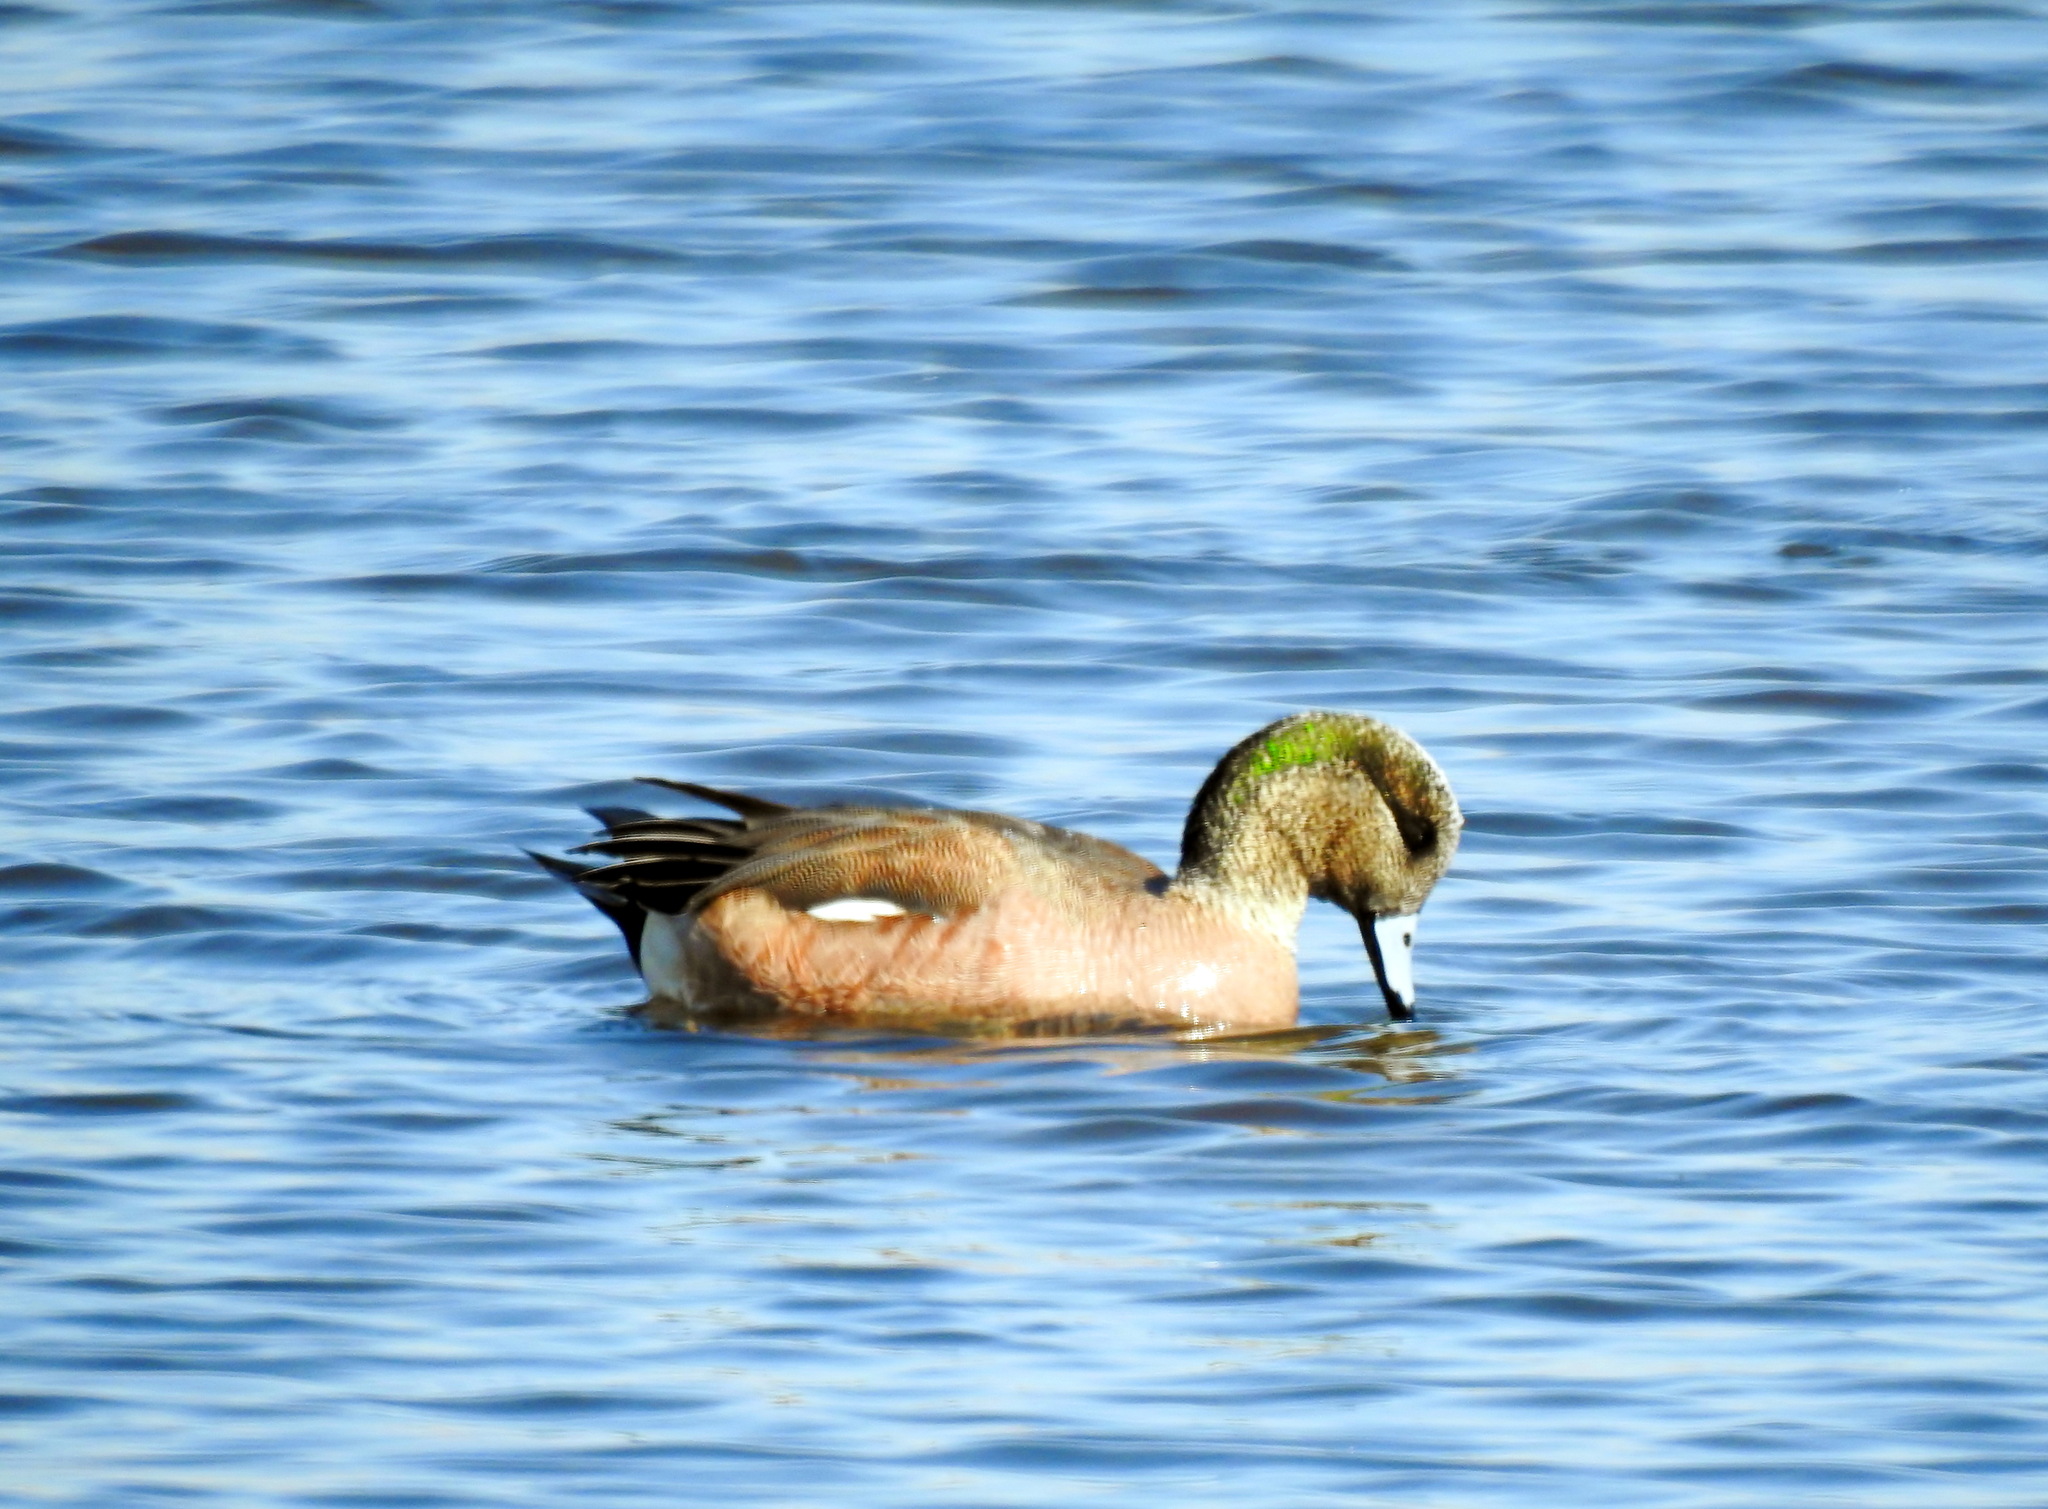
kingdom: Animalia
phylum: Chordata
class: Aves
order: Anseriformes
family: Anatidae
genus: Mareca
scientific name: Mareca americana
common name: American wigeon
